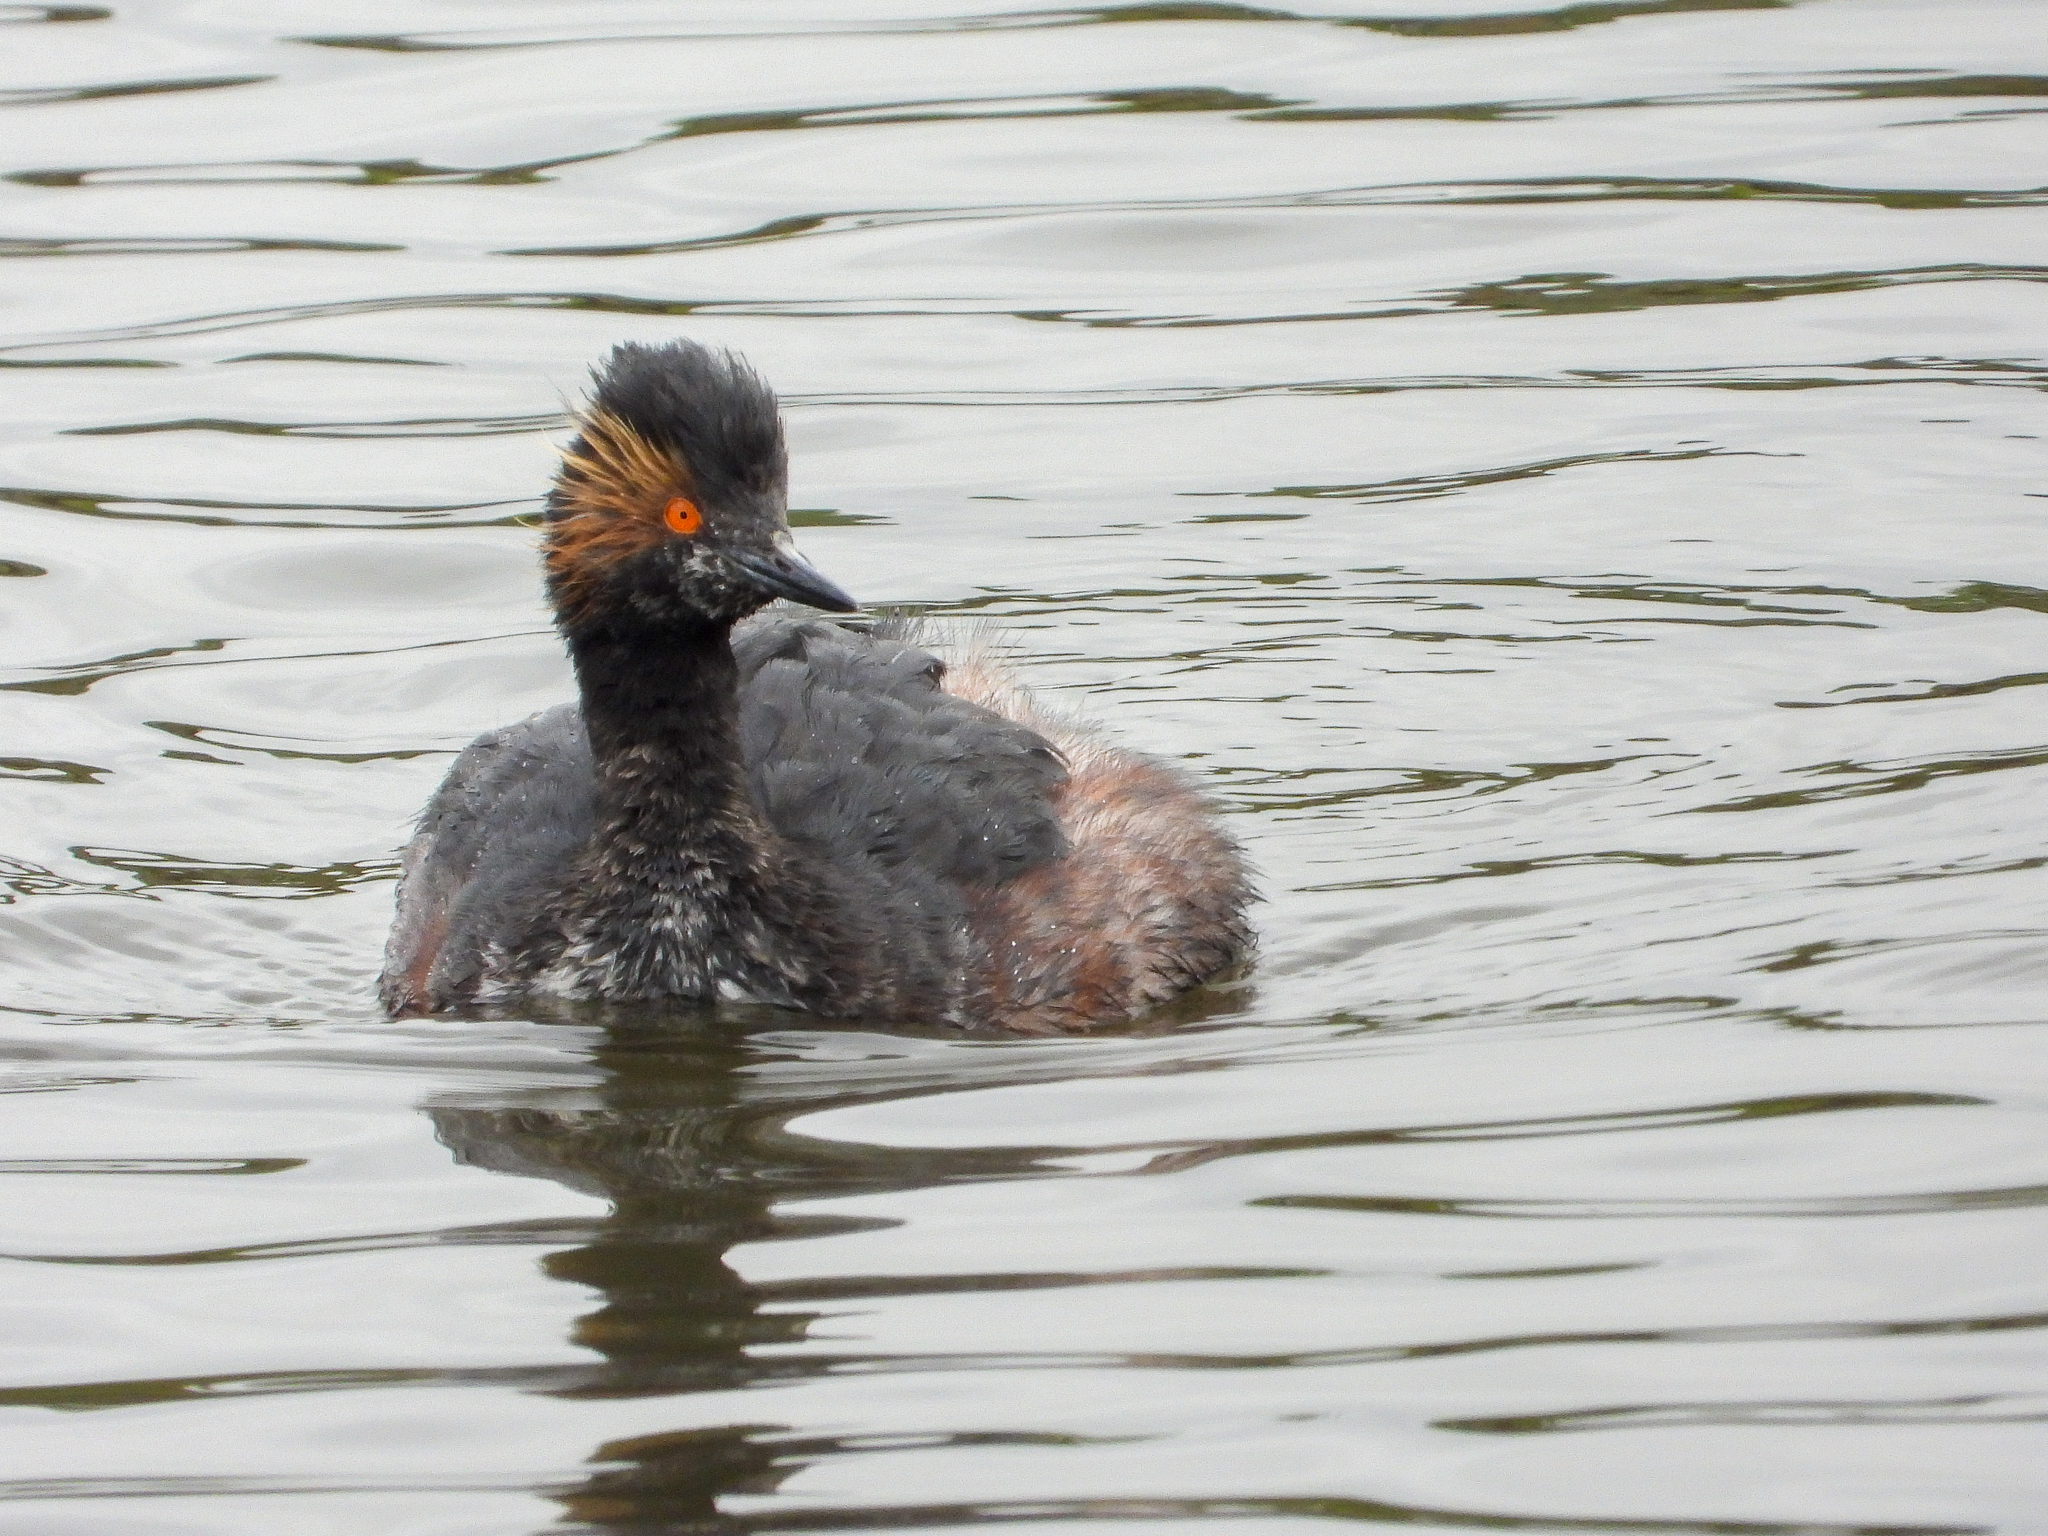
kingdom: Animalia
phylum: Chordata
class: Aves
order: Podicipediformes
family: Podicipedidae
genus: Podiceps
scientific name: Podiceps nigricollis
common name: Black-necked grebe
